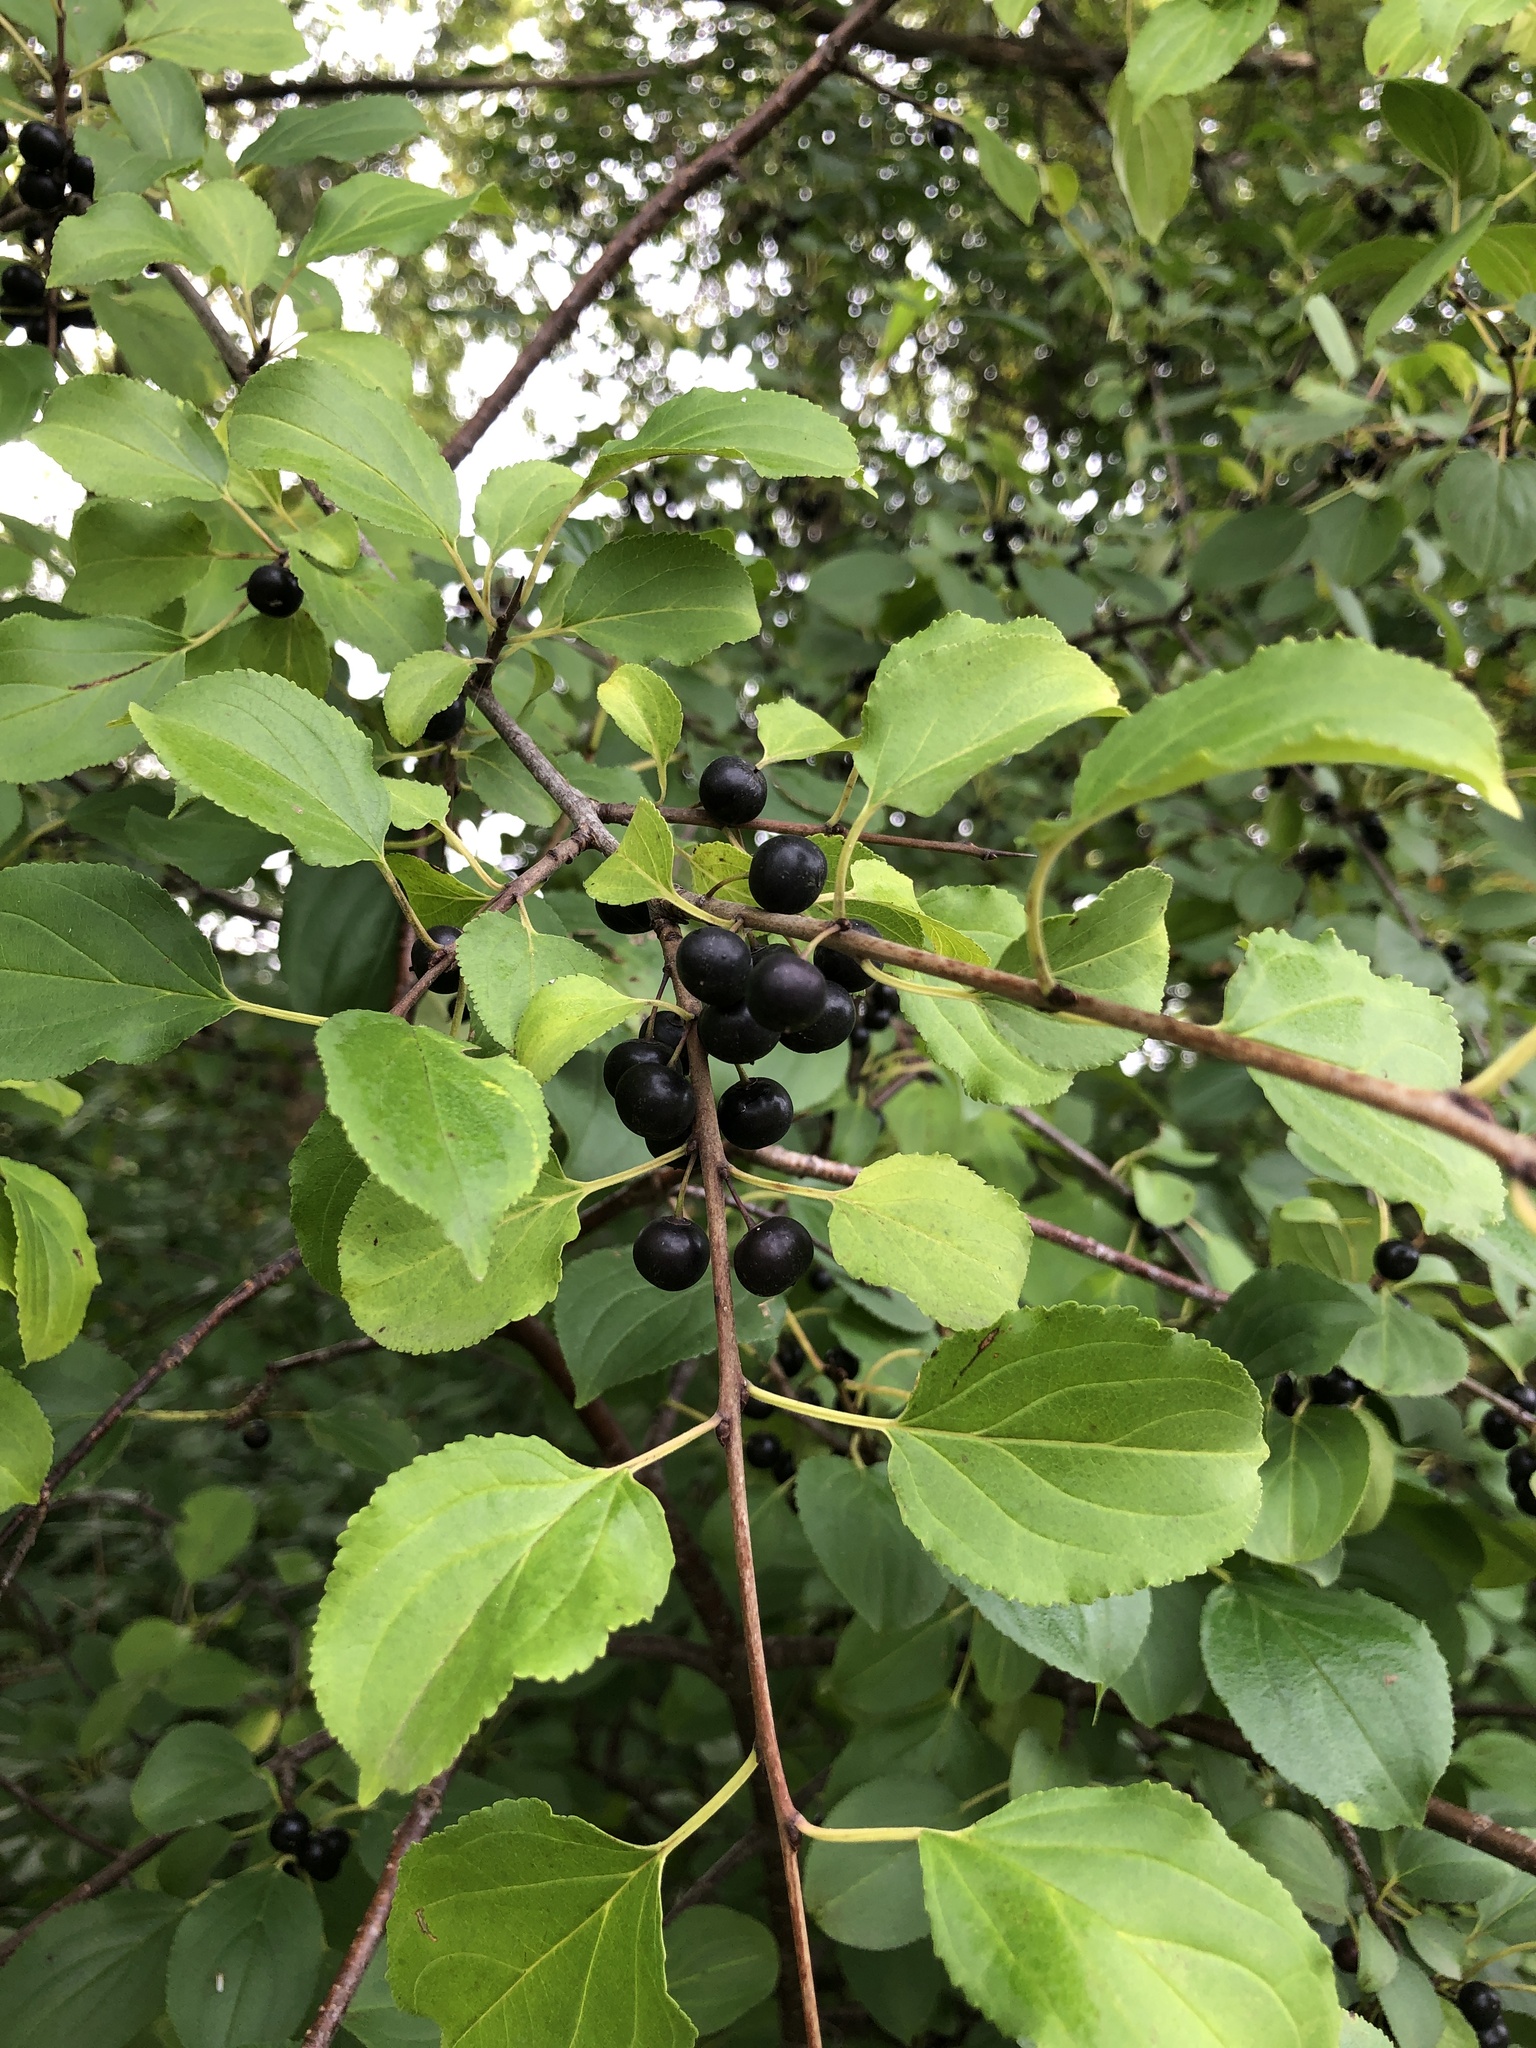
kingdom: Plantae
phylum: Tracheophyta
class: Magnoliopsida
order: Rosales
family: Rhamnaceae
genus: Rhamnus
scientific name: Rhamnus cathartica
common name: Common buckthorn
